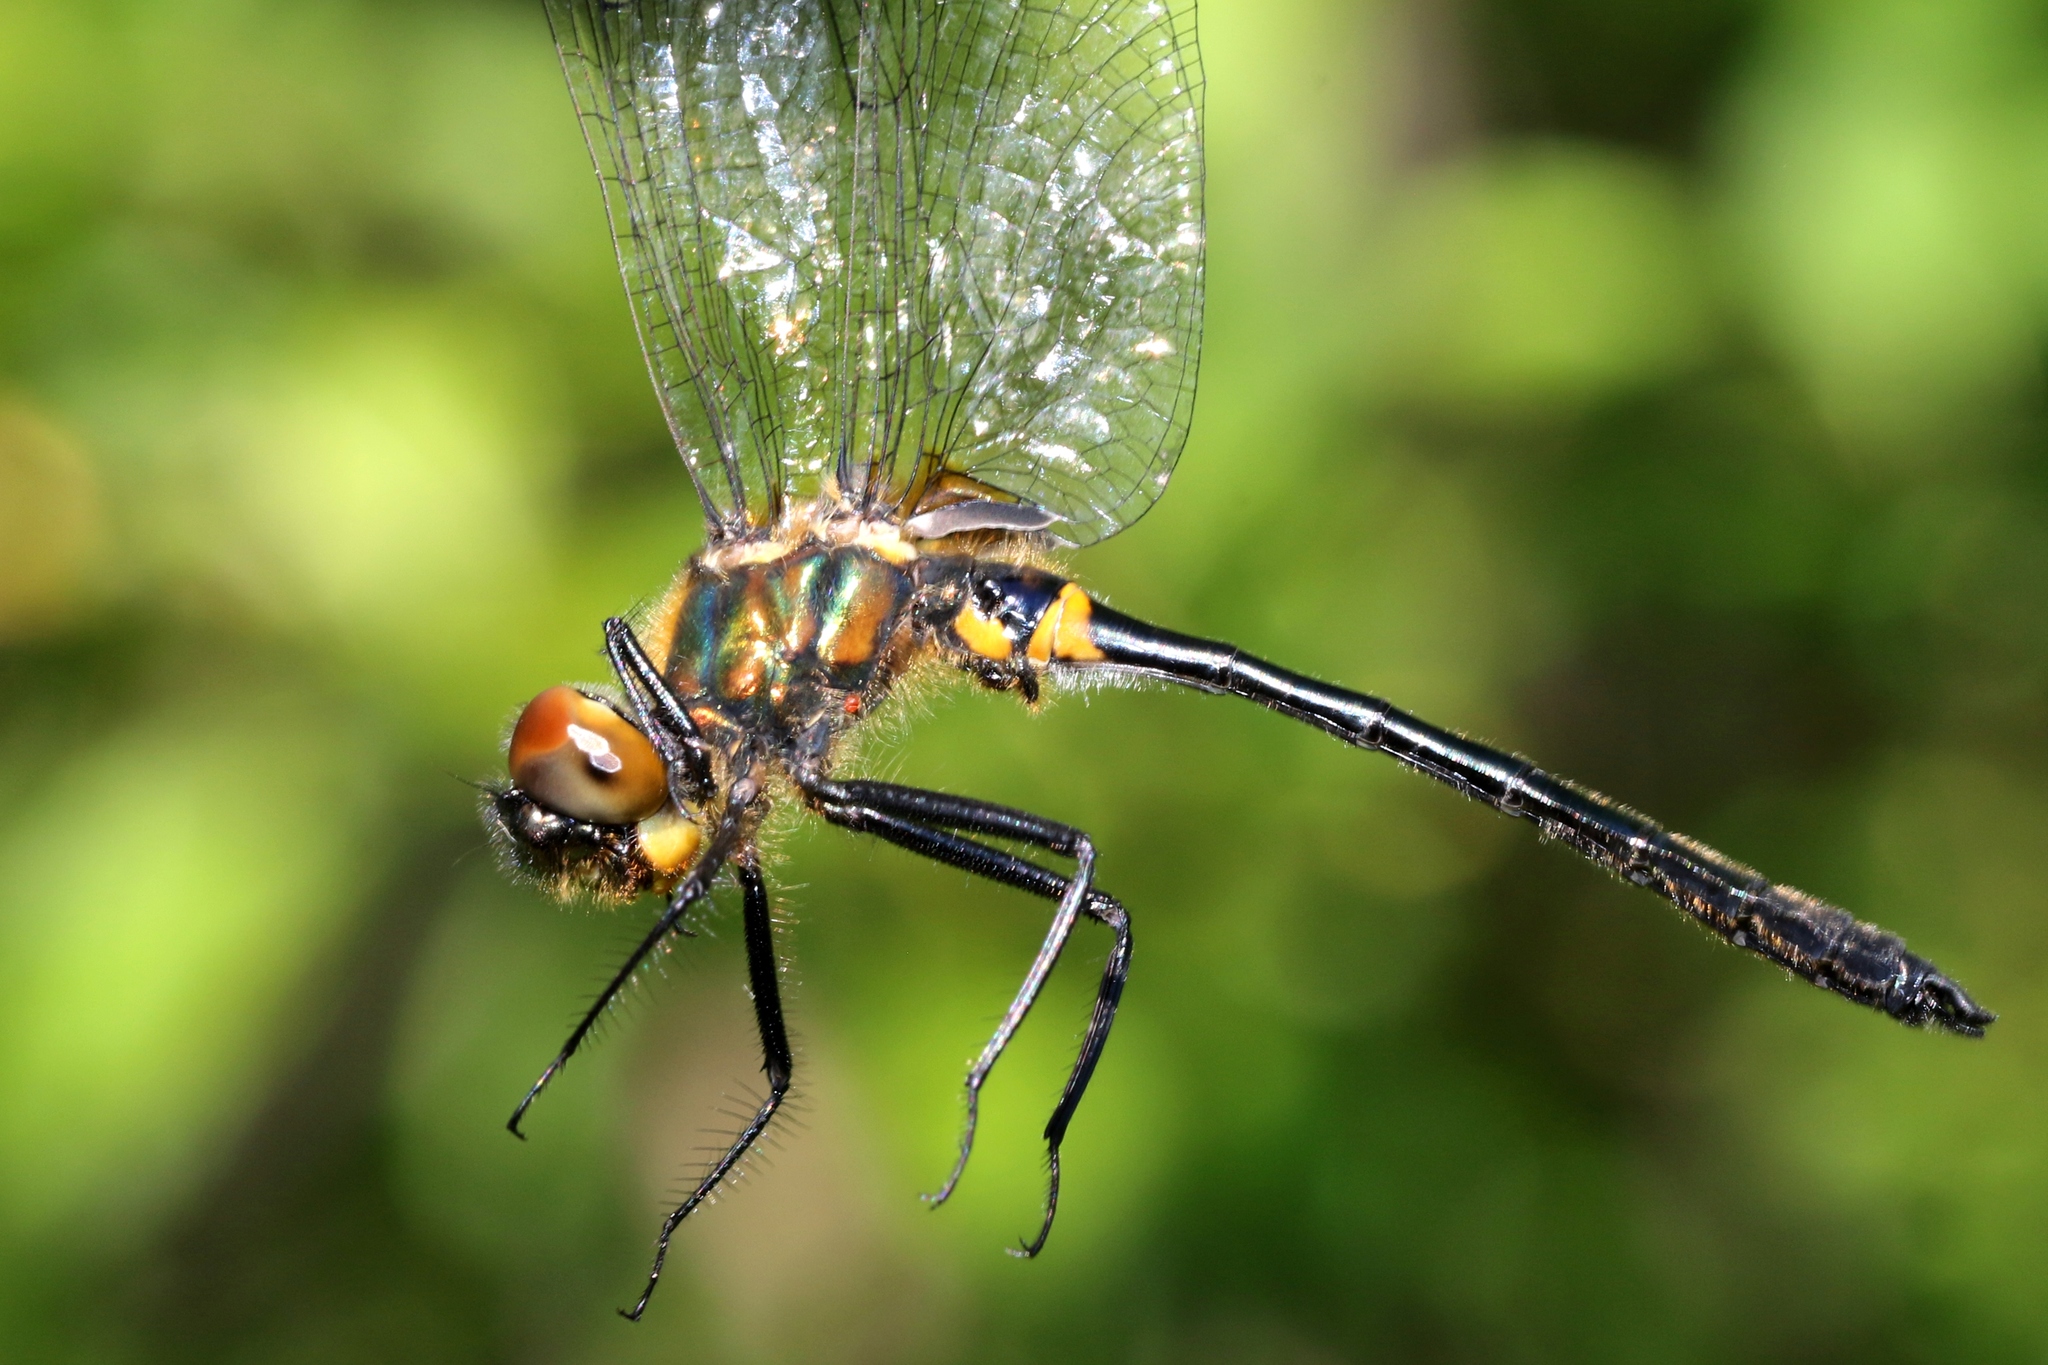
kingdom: Animalia
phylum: Arthropoda
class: Insecta
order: Odonata
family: Corduliidae
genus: Dorocordulia
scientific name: Dorocordulia libera
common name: Racket-tailed emerald
